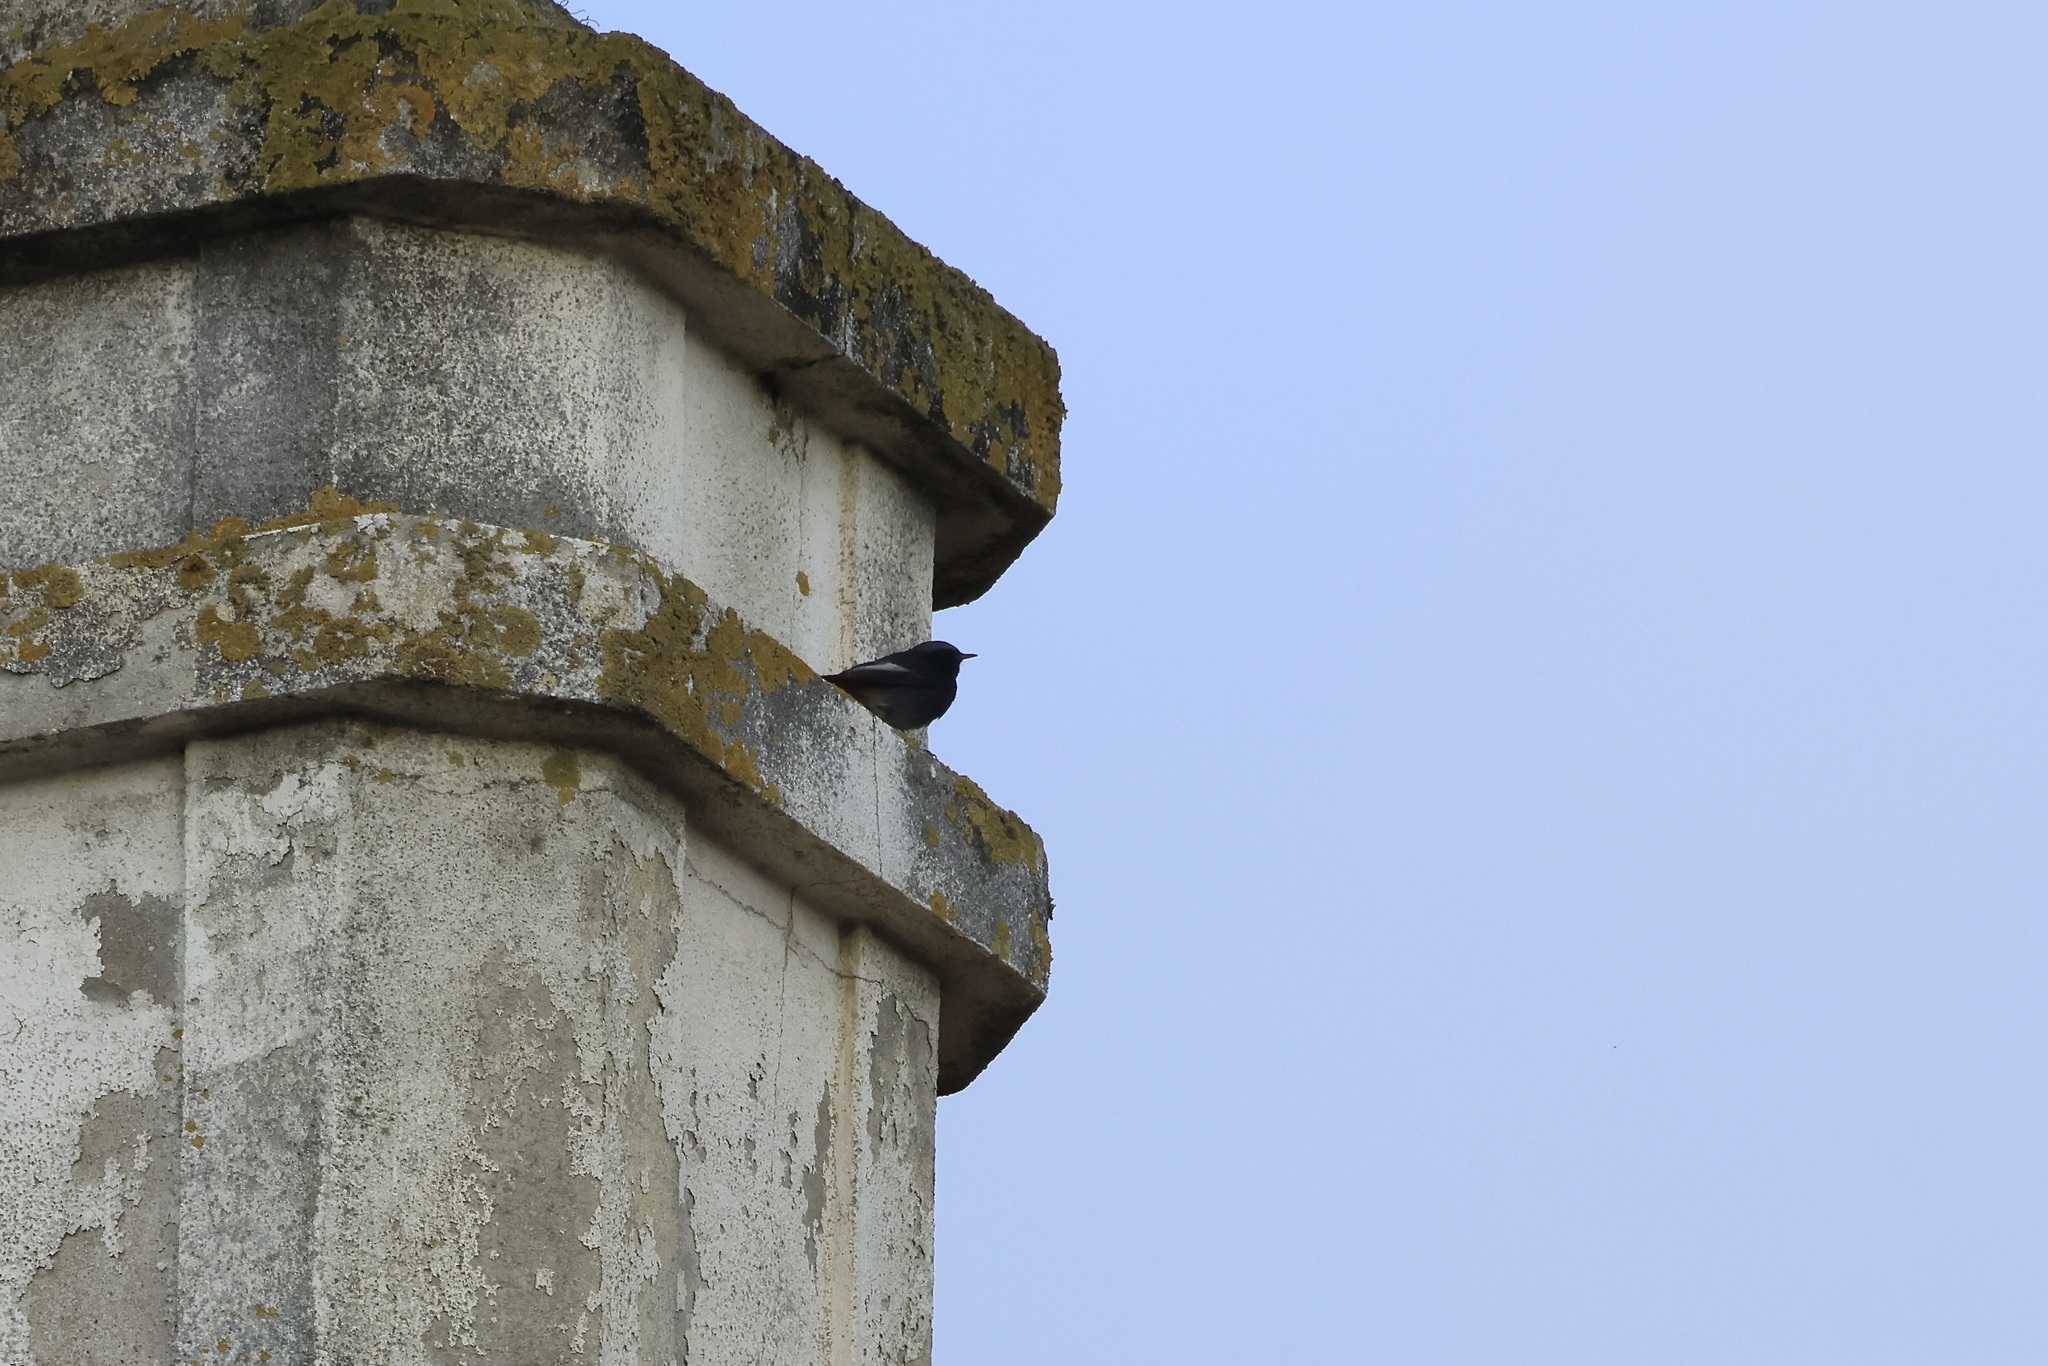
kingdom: Animalia
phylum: Chordata
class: Aves
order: Passeriformes
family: Muscicapidae
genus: Phoenicurus
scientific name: Phoenicurus ochruros
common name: Black redstart
